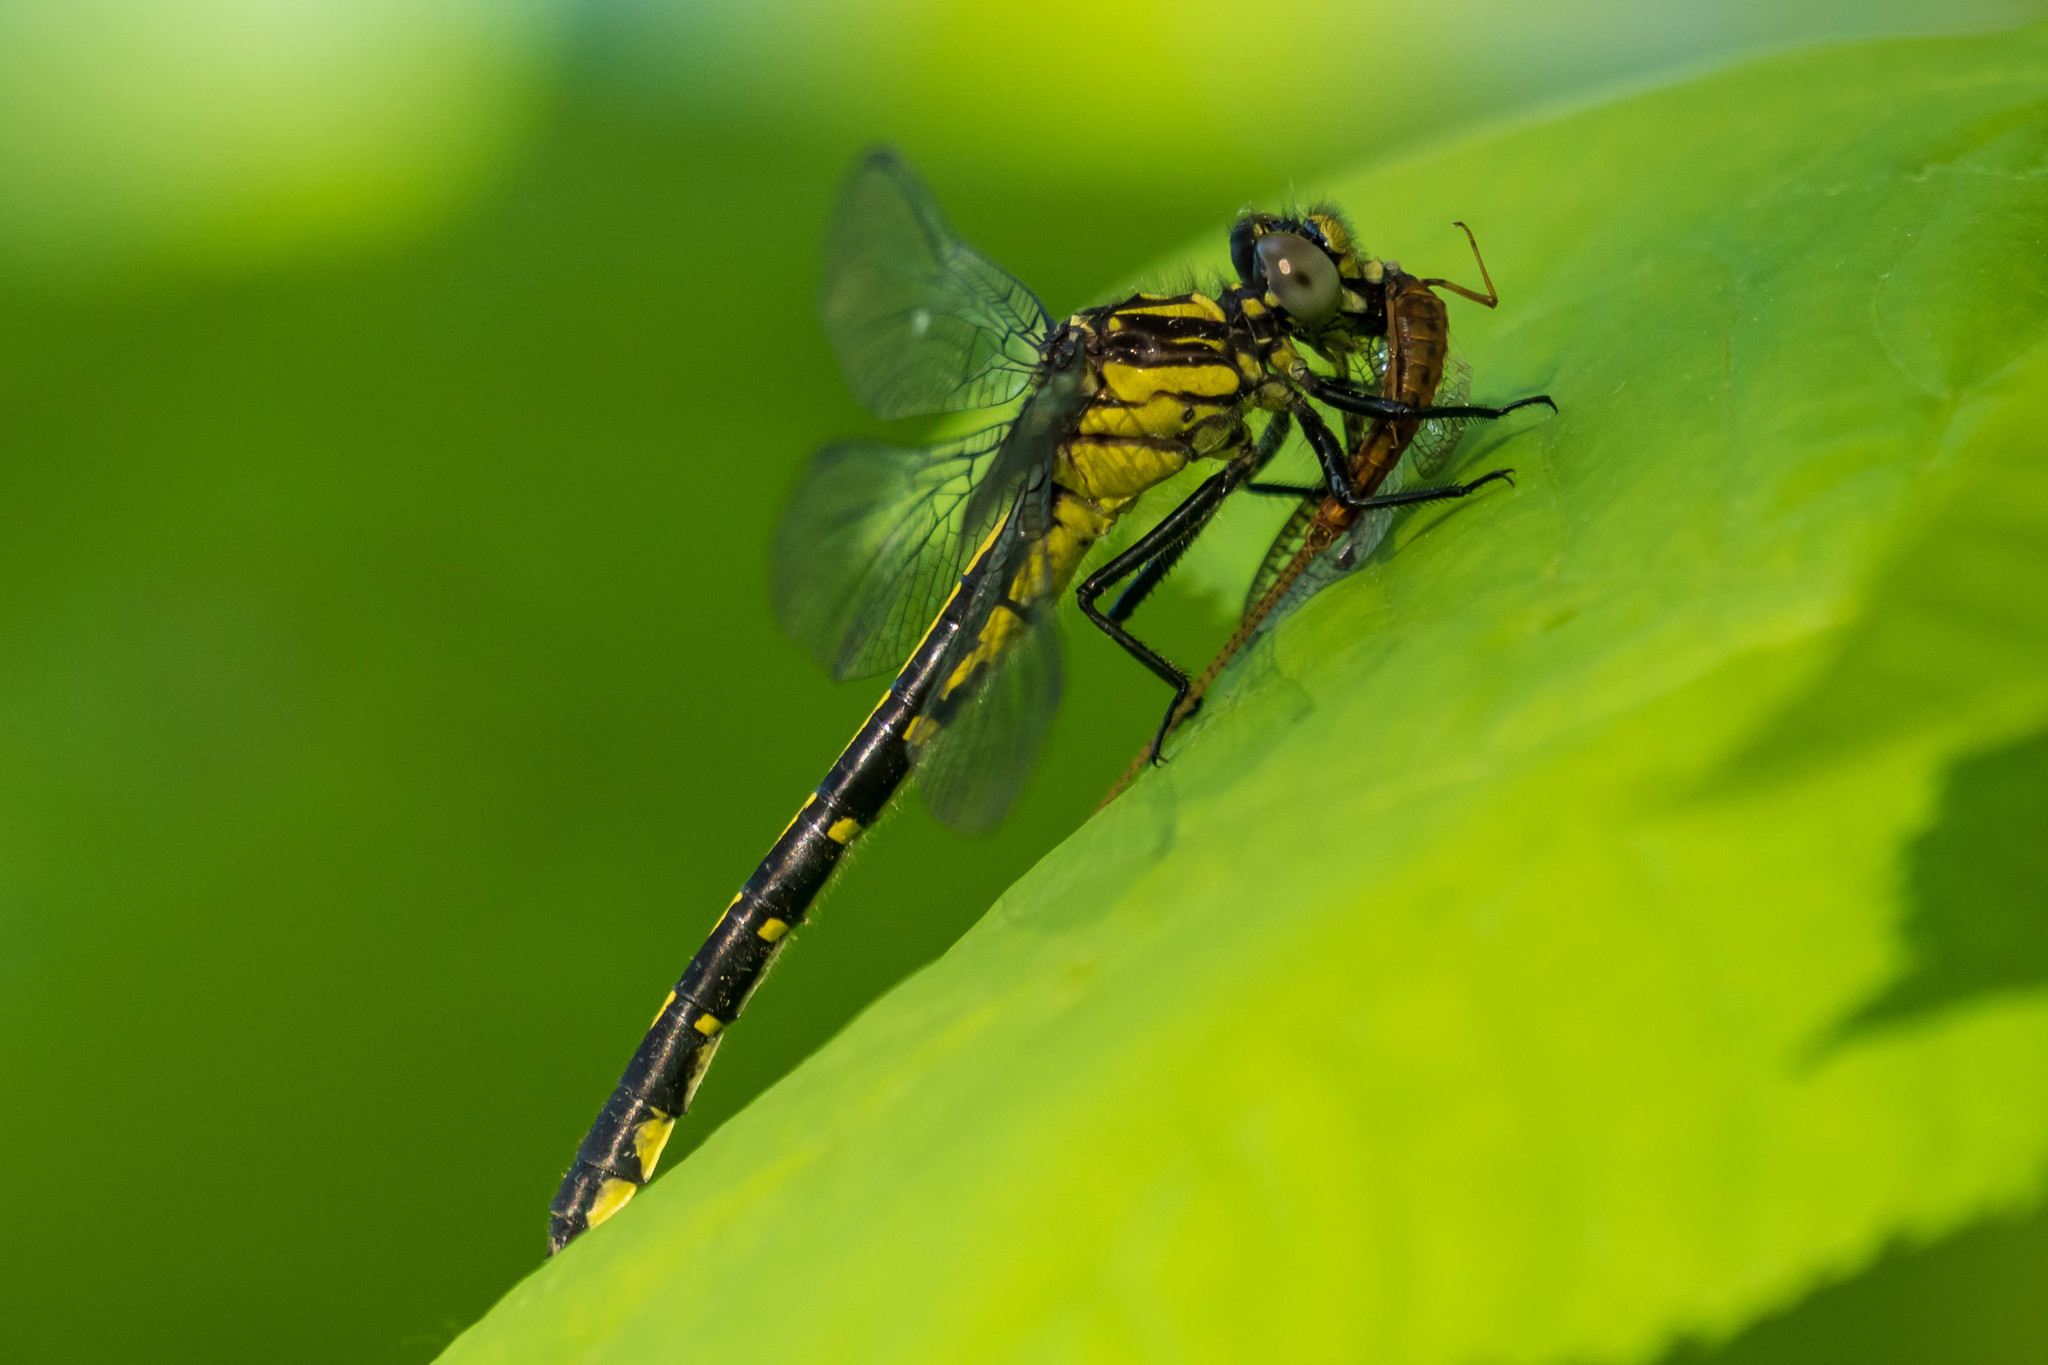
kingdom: Animalia
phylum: Arthropoda
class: Insecta
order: Odonata
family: Gomphidae
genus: Hylogomphus
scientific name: Hylogomphus adelphus
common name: Mustached clubtail
